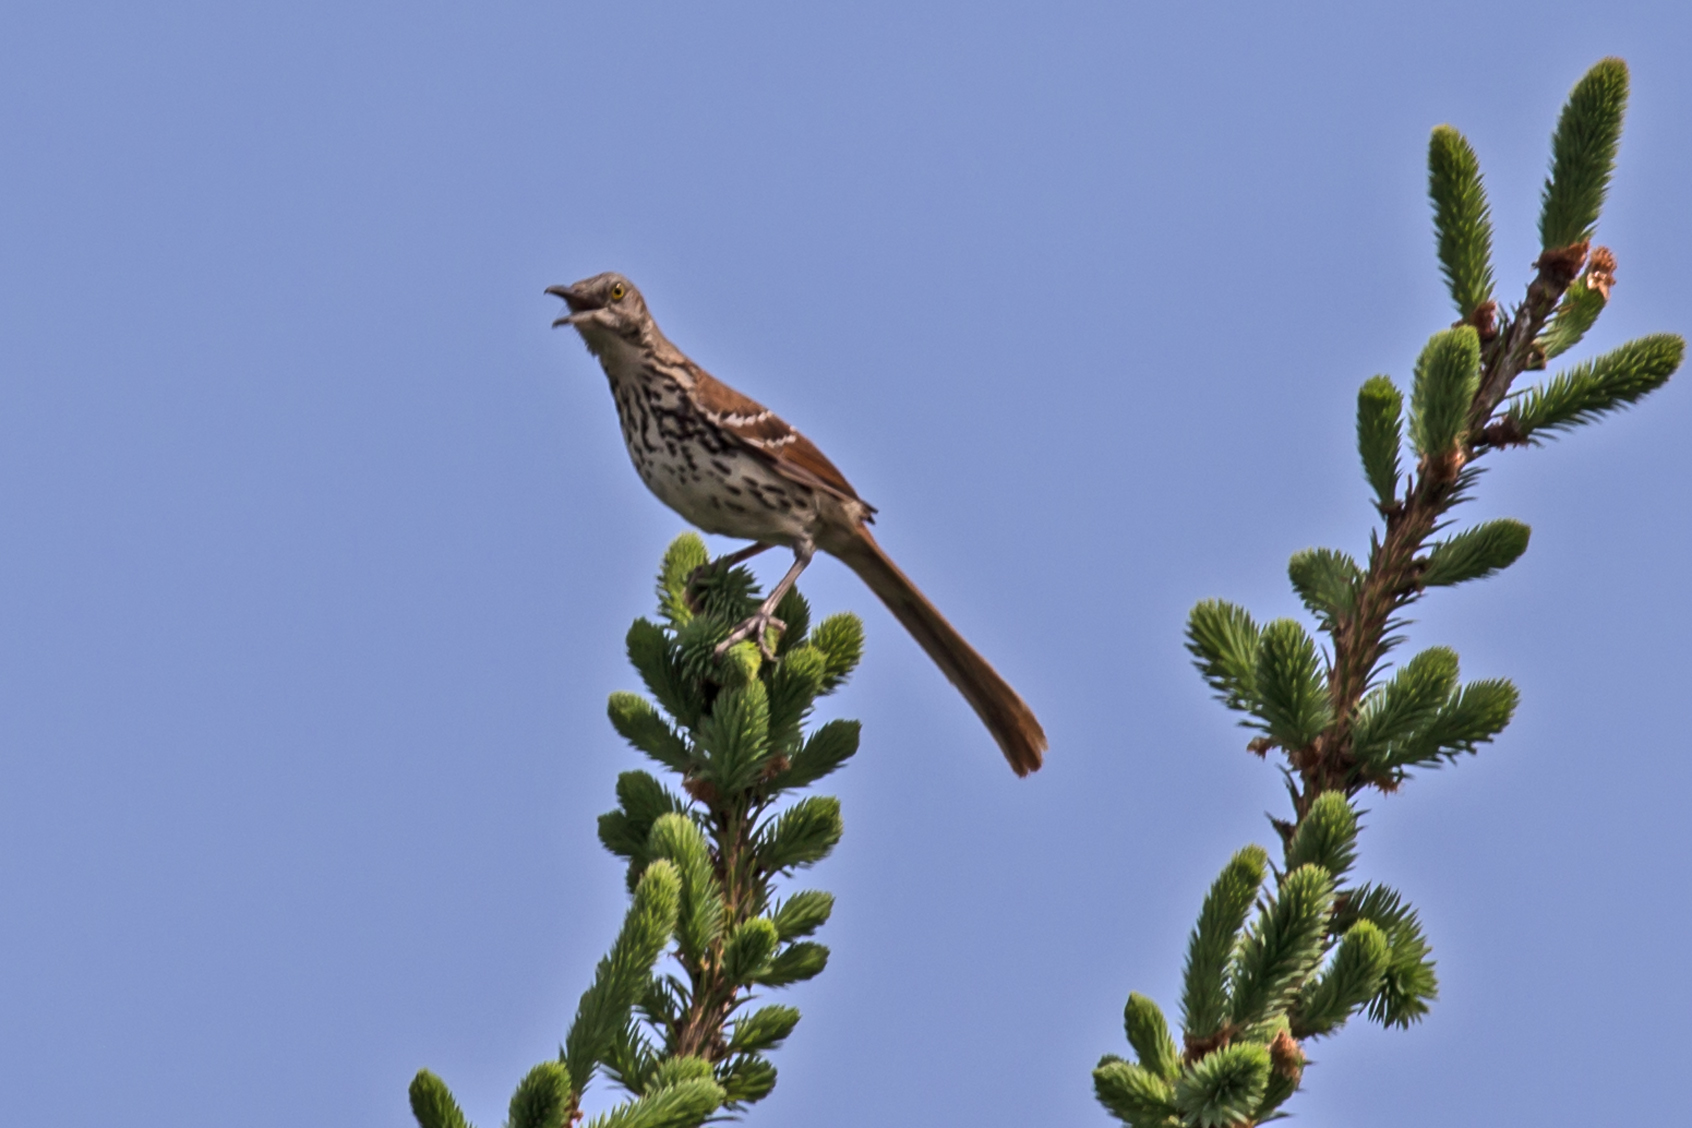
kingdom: Animalia
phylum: Chordata
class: Aves
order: Passeriformes
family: Mimidae
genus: Toxostoma
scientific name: Toxostoma rufum
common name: Brown thrasher
